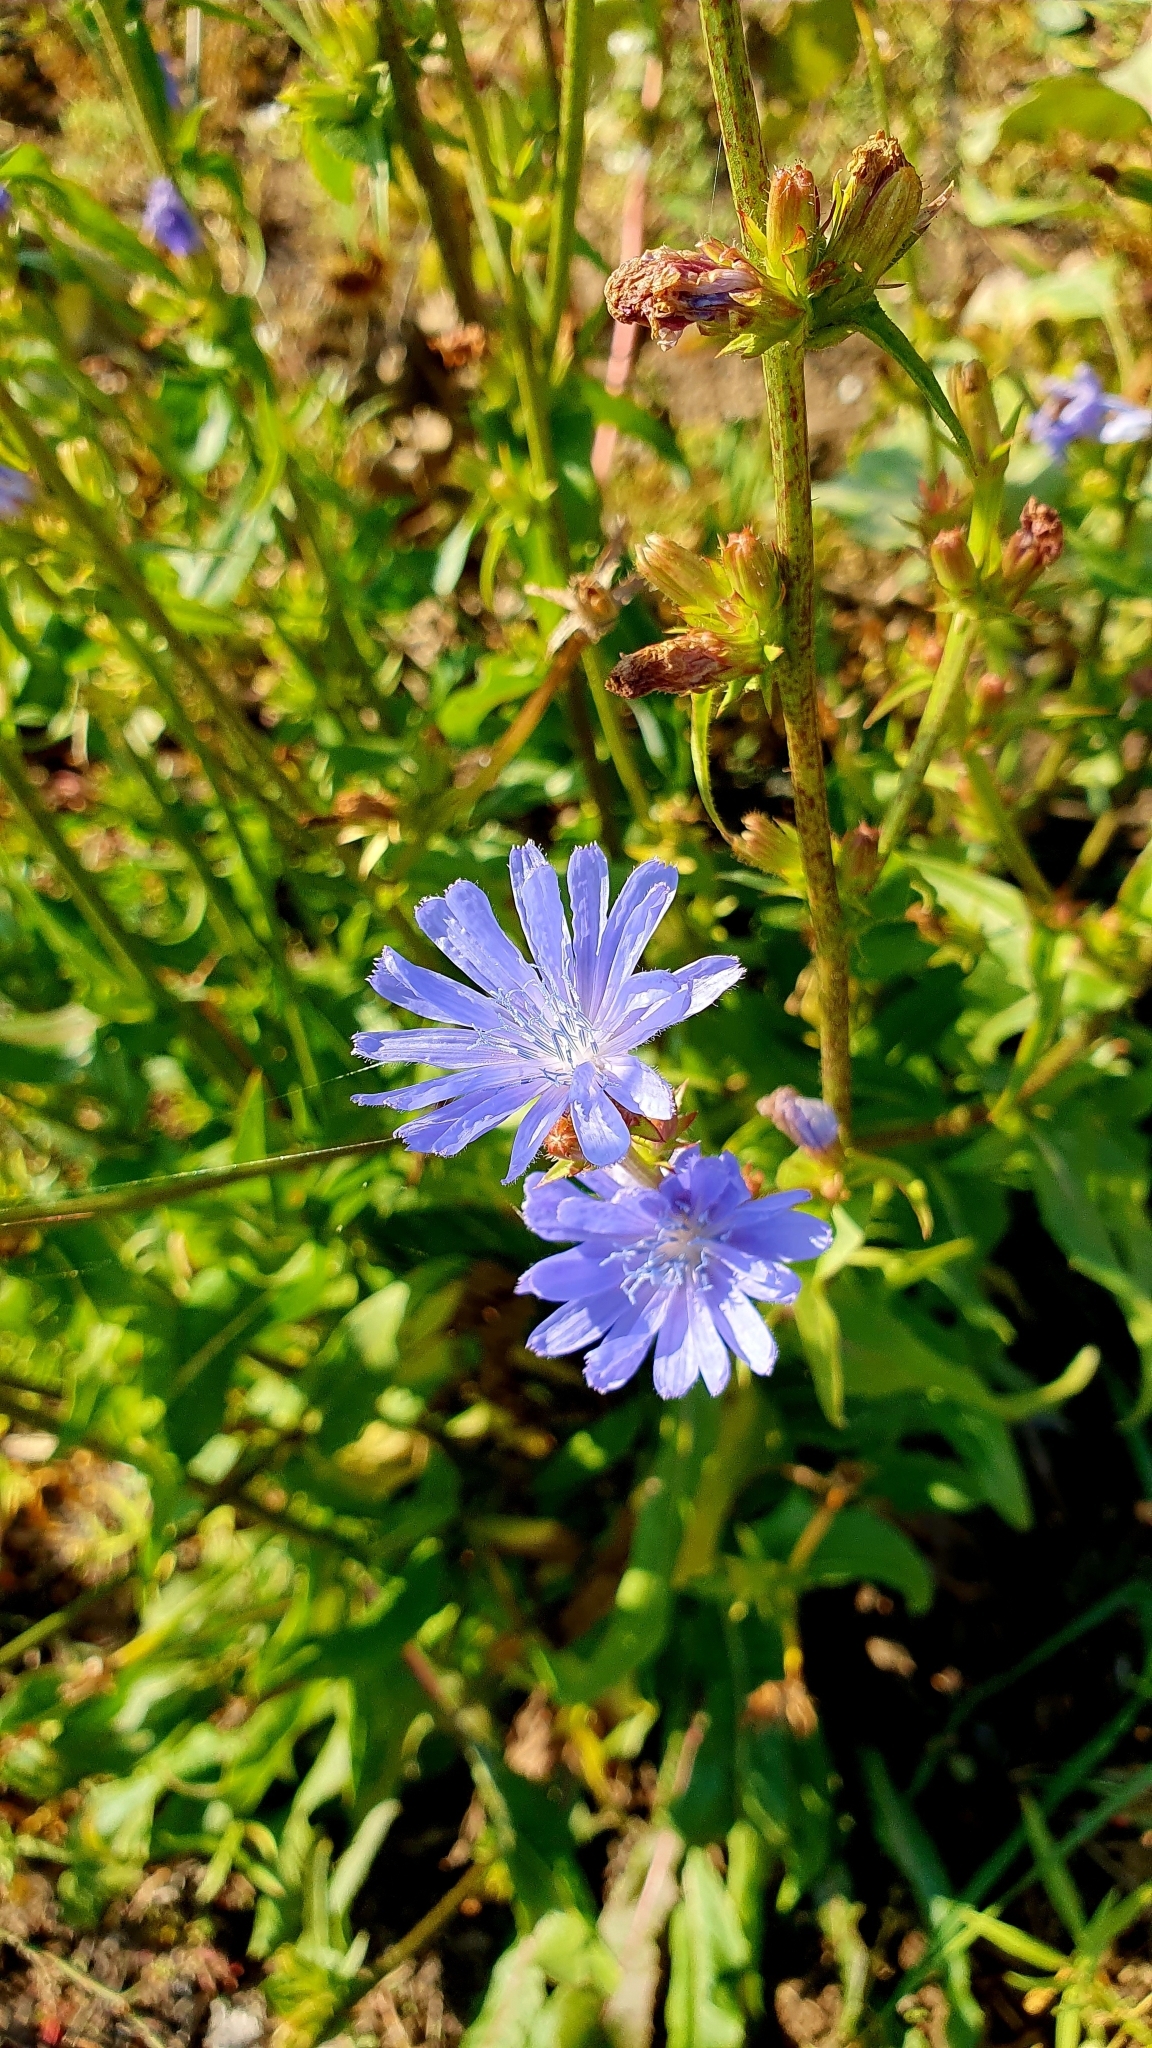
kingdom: Plantae
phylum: Tracheophyta
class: Magnoliopsida
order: Asterales
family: Asteraceae
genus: Cichorium
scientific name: Cichorium intybus
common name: Chicory
